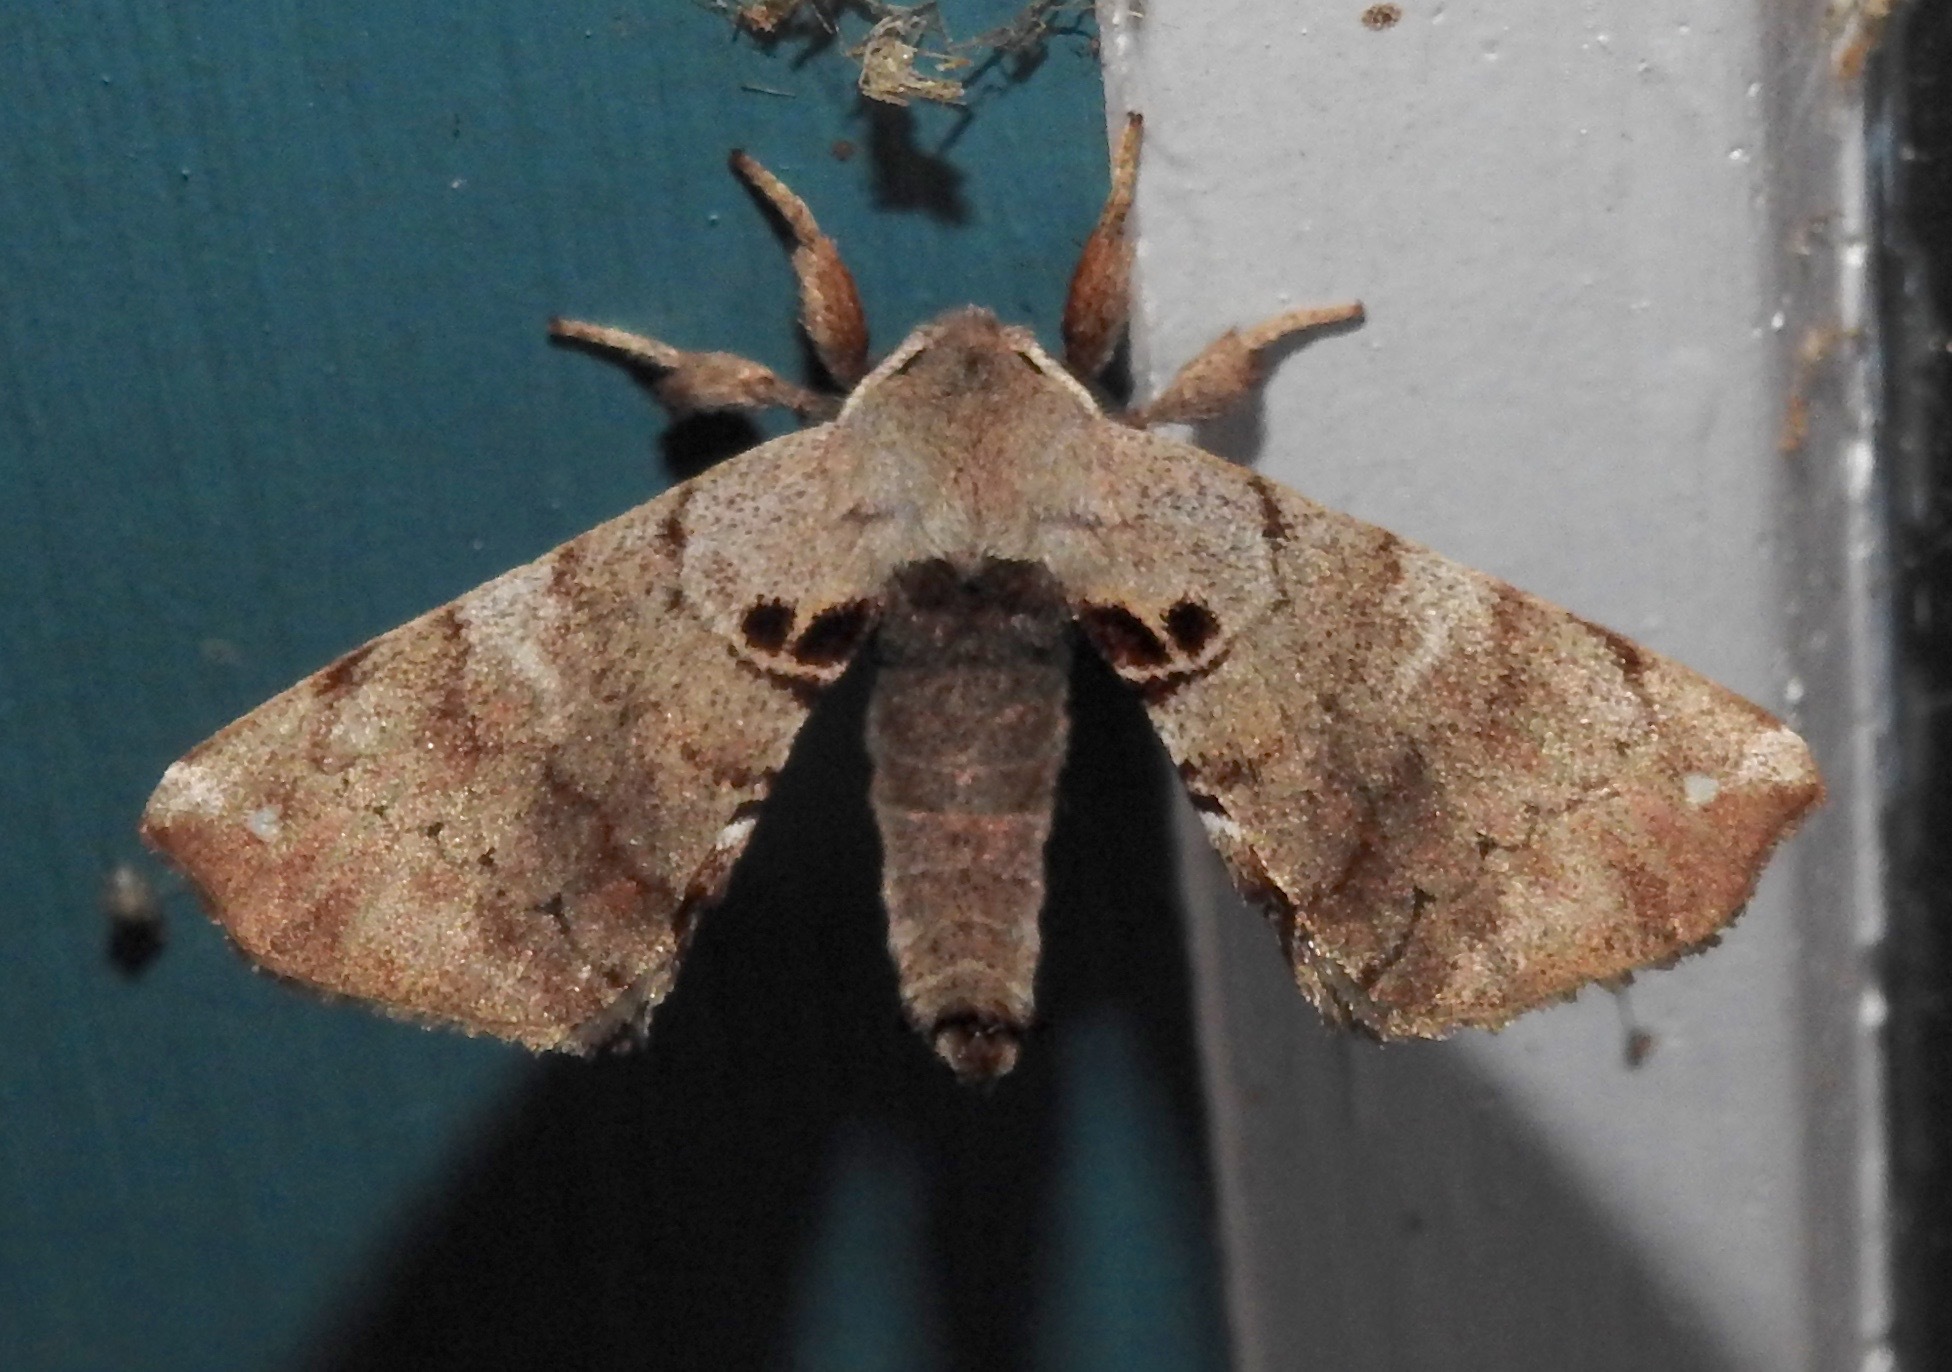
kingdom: Animalia
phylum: Arthropoda
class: Insecta
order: Lepidoptera
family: Apatelodidae
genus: Hygrochroa
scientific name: Hygrochroa Apatelodes torrefacta
